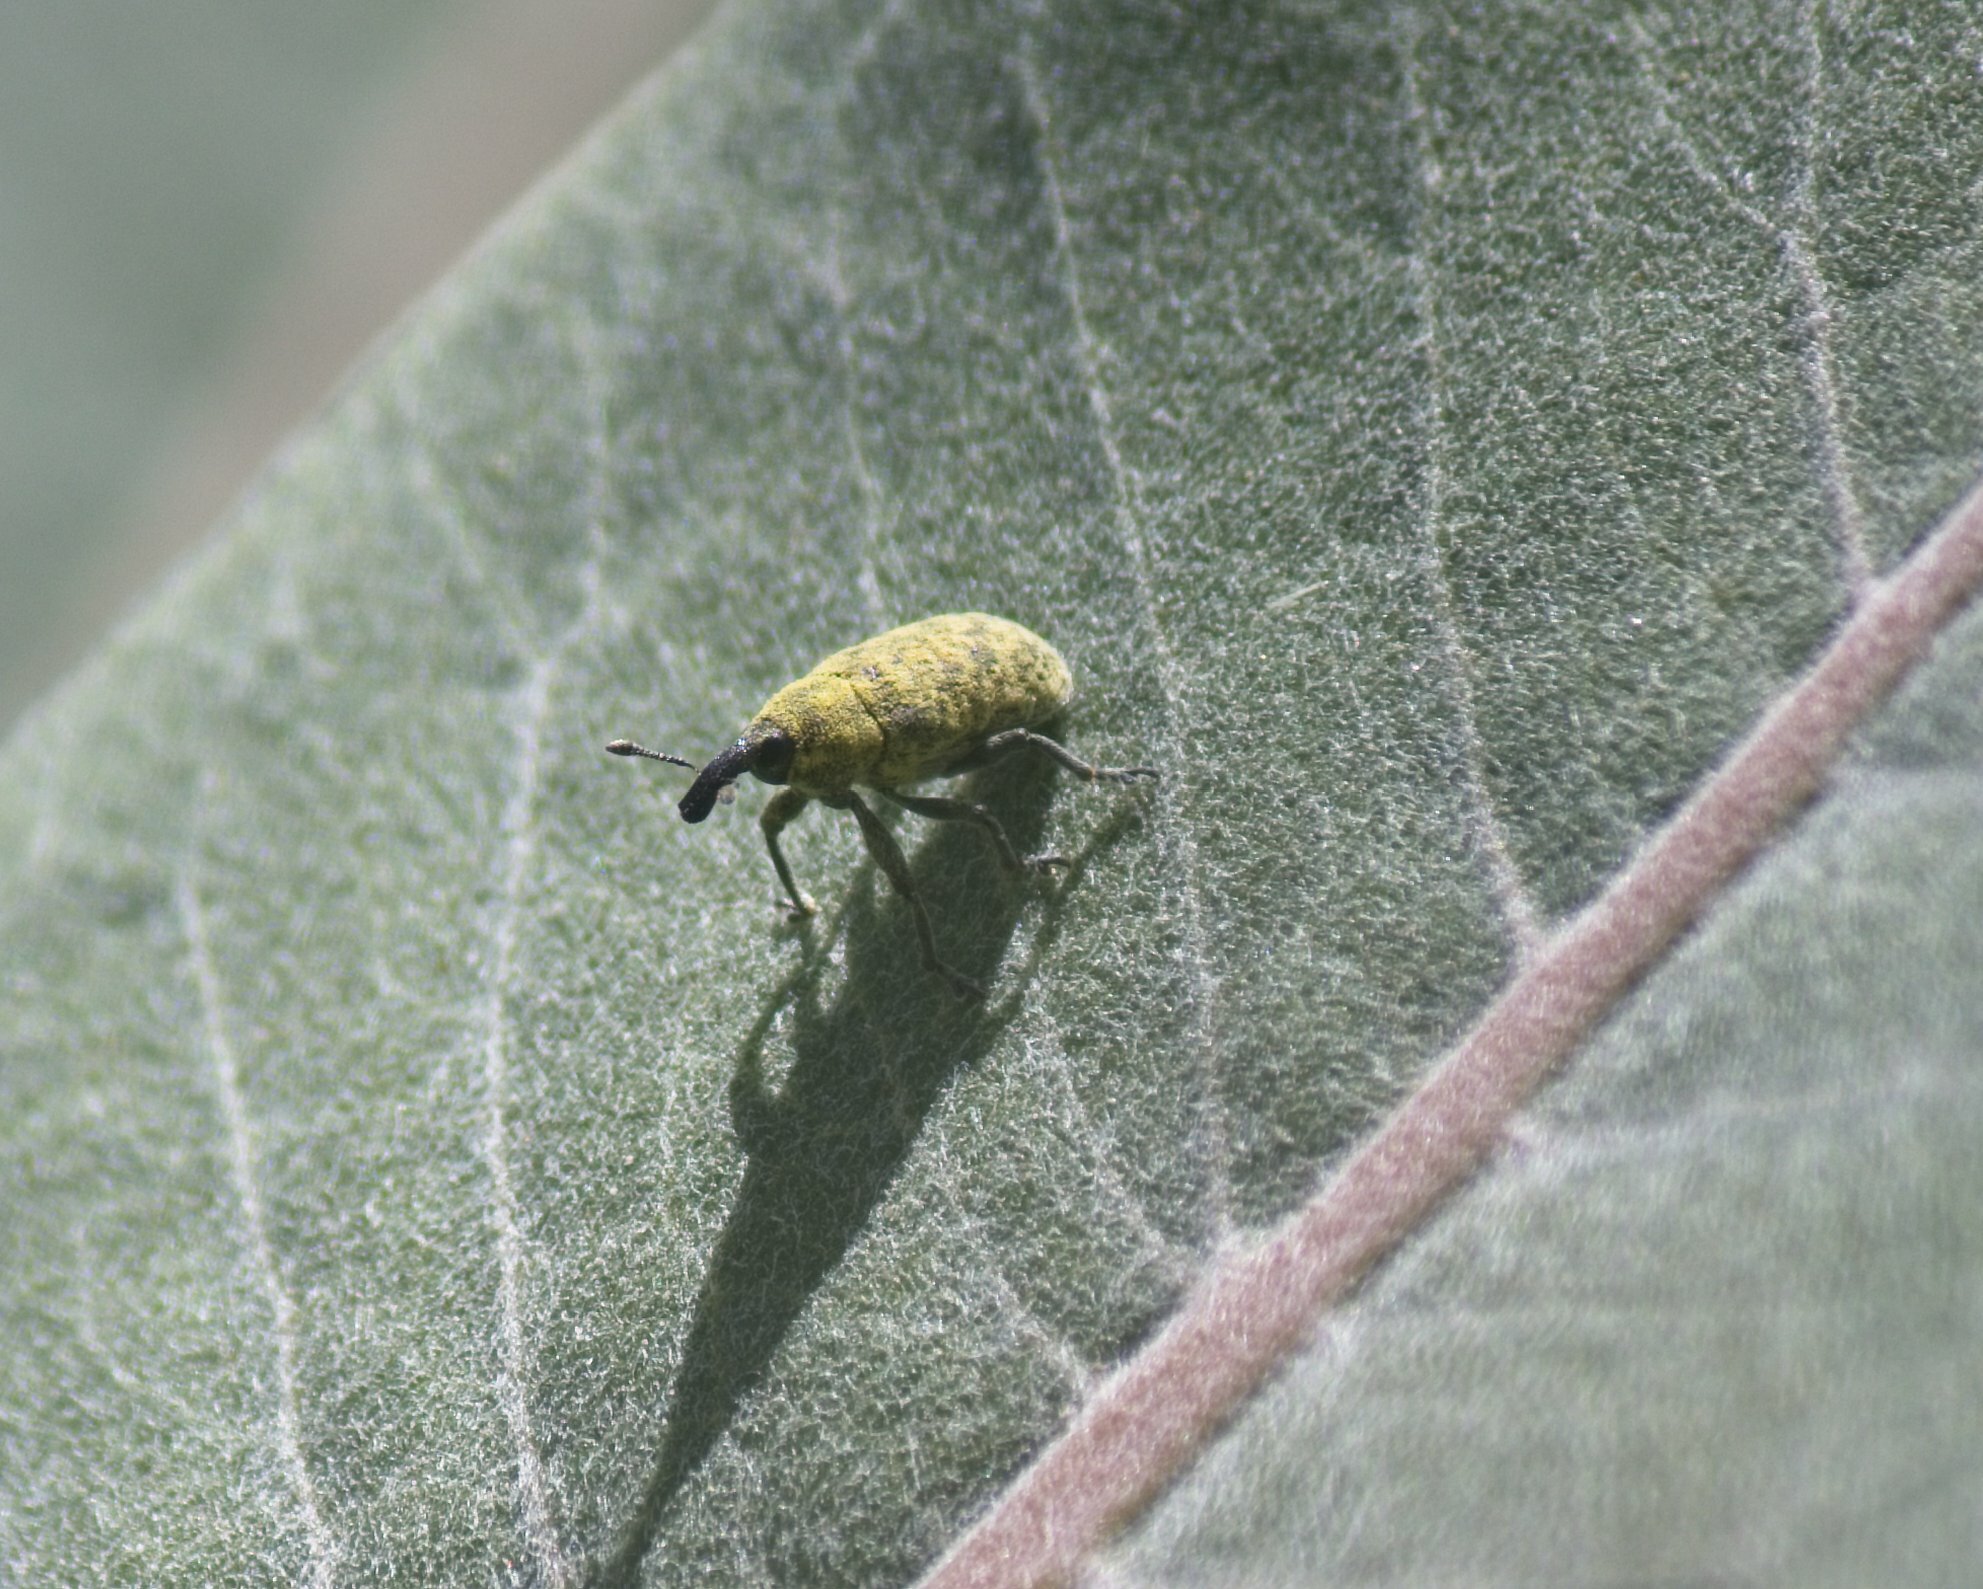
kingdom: Animalia
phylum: Arthropoda
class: Insecta
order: Coleoptera
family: Curculionidae
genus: Larinus
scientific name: Larinus carlinae
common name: Weevil
